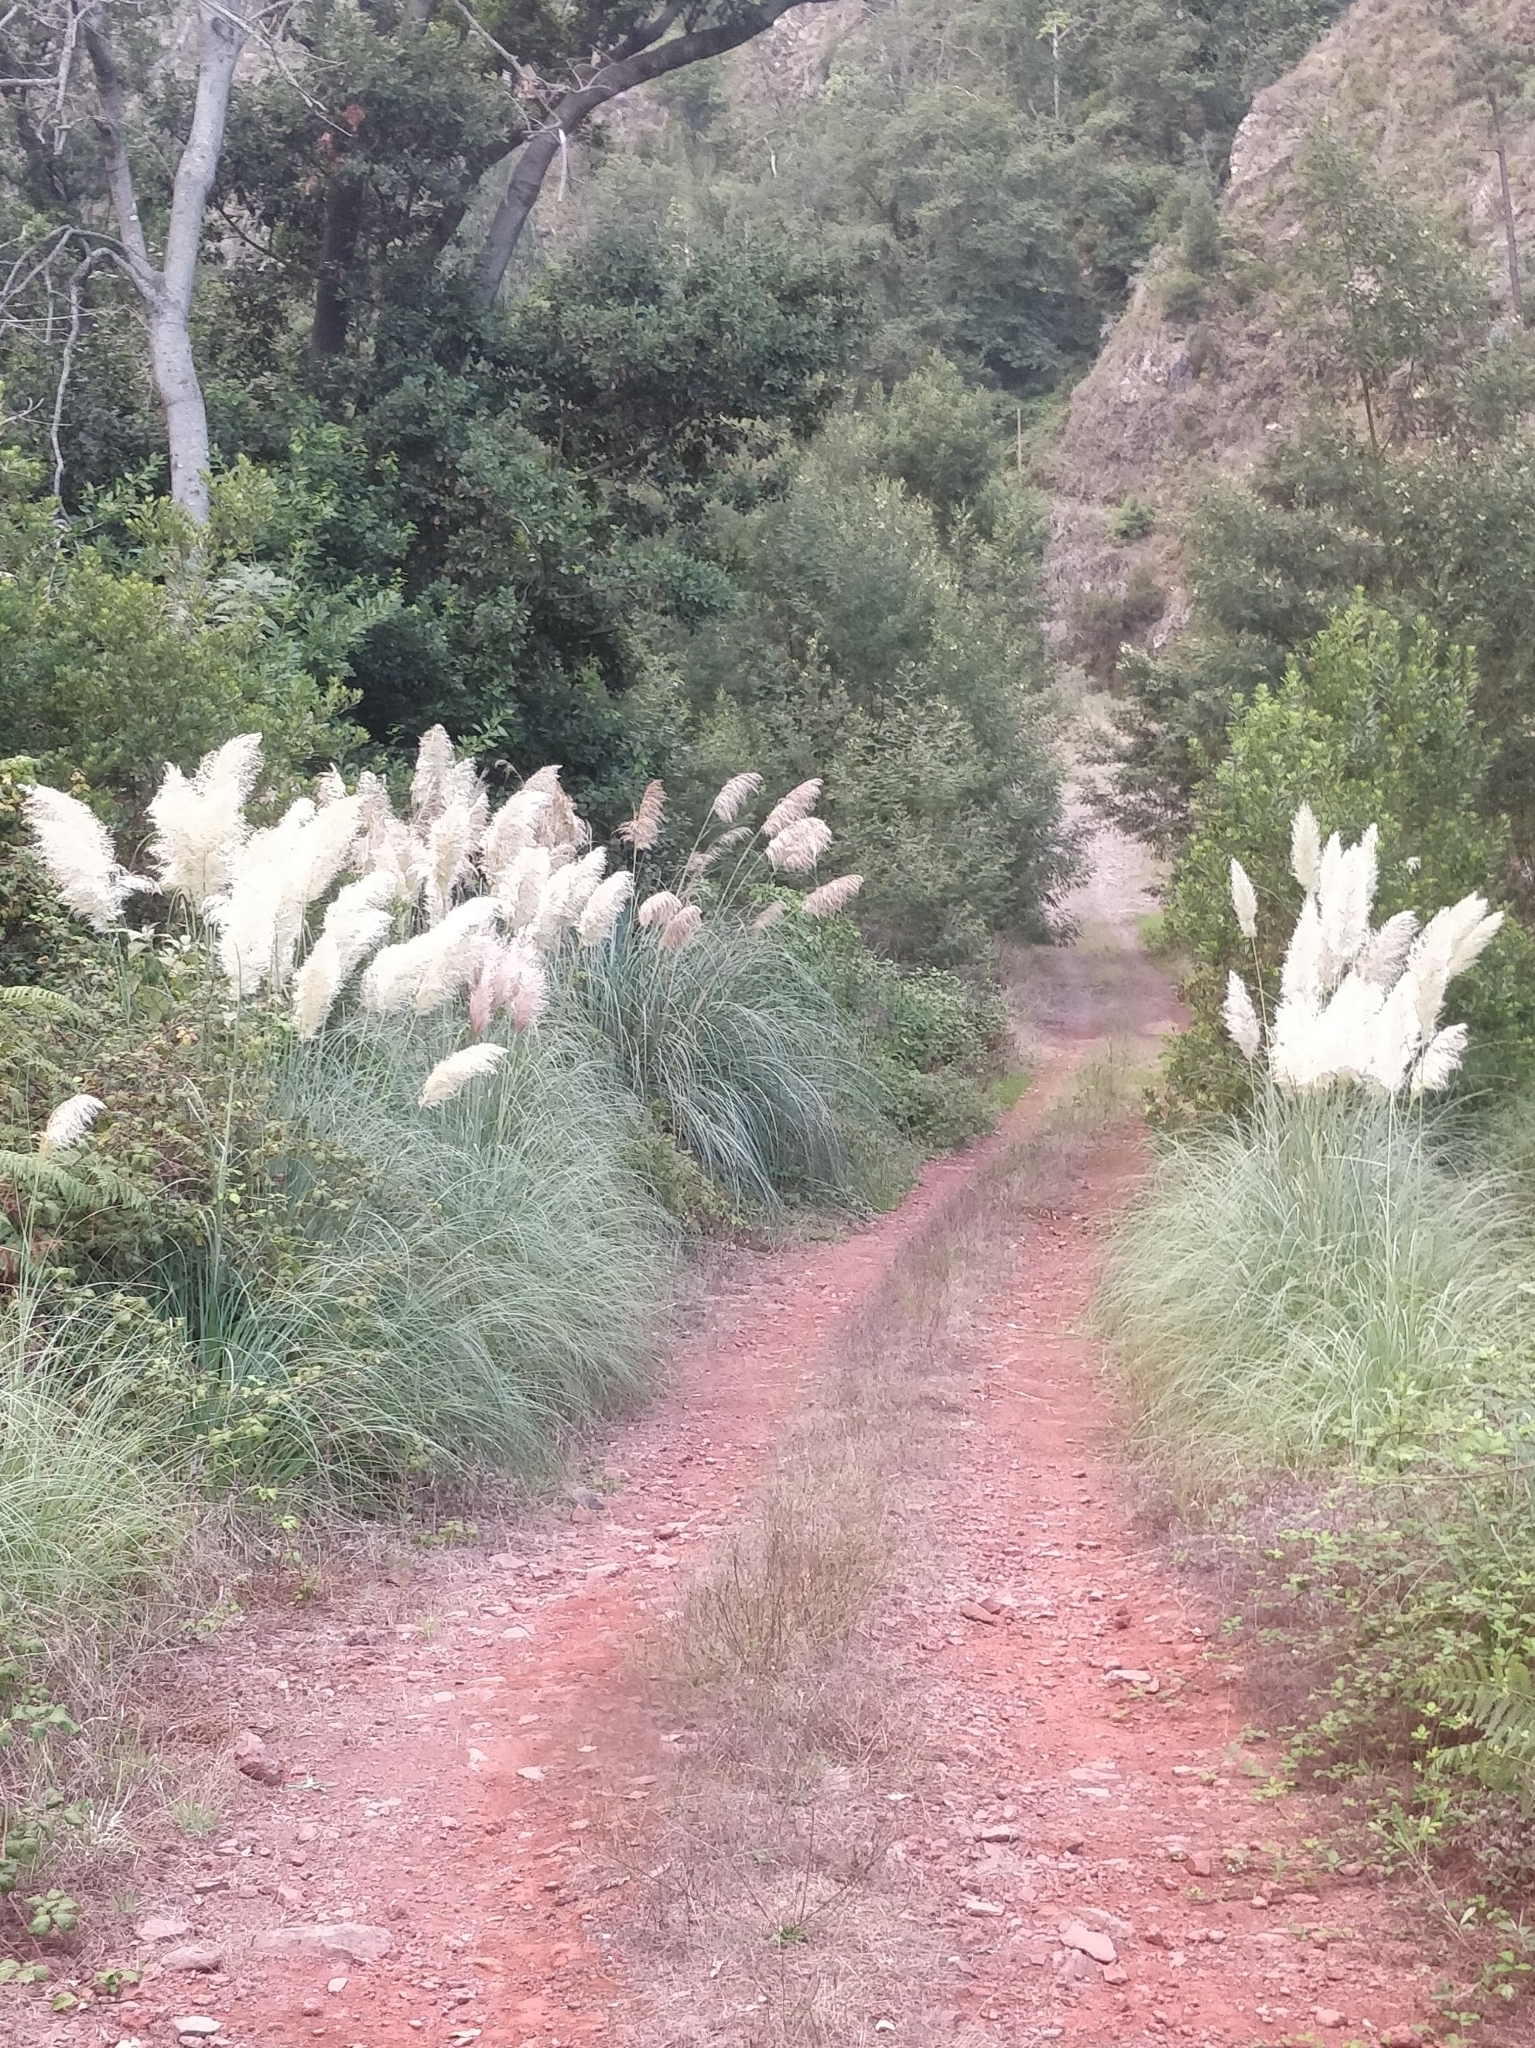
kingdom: Plantae
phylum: Tracheophyta
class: Liliopsida
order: Poales
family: Poaceae
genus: Cortaderia
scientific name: Cortaderia selloana
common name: Uruguayan pampas grass
